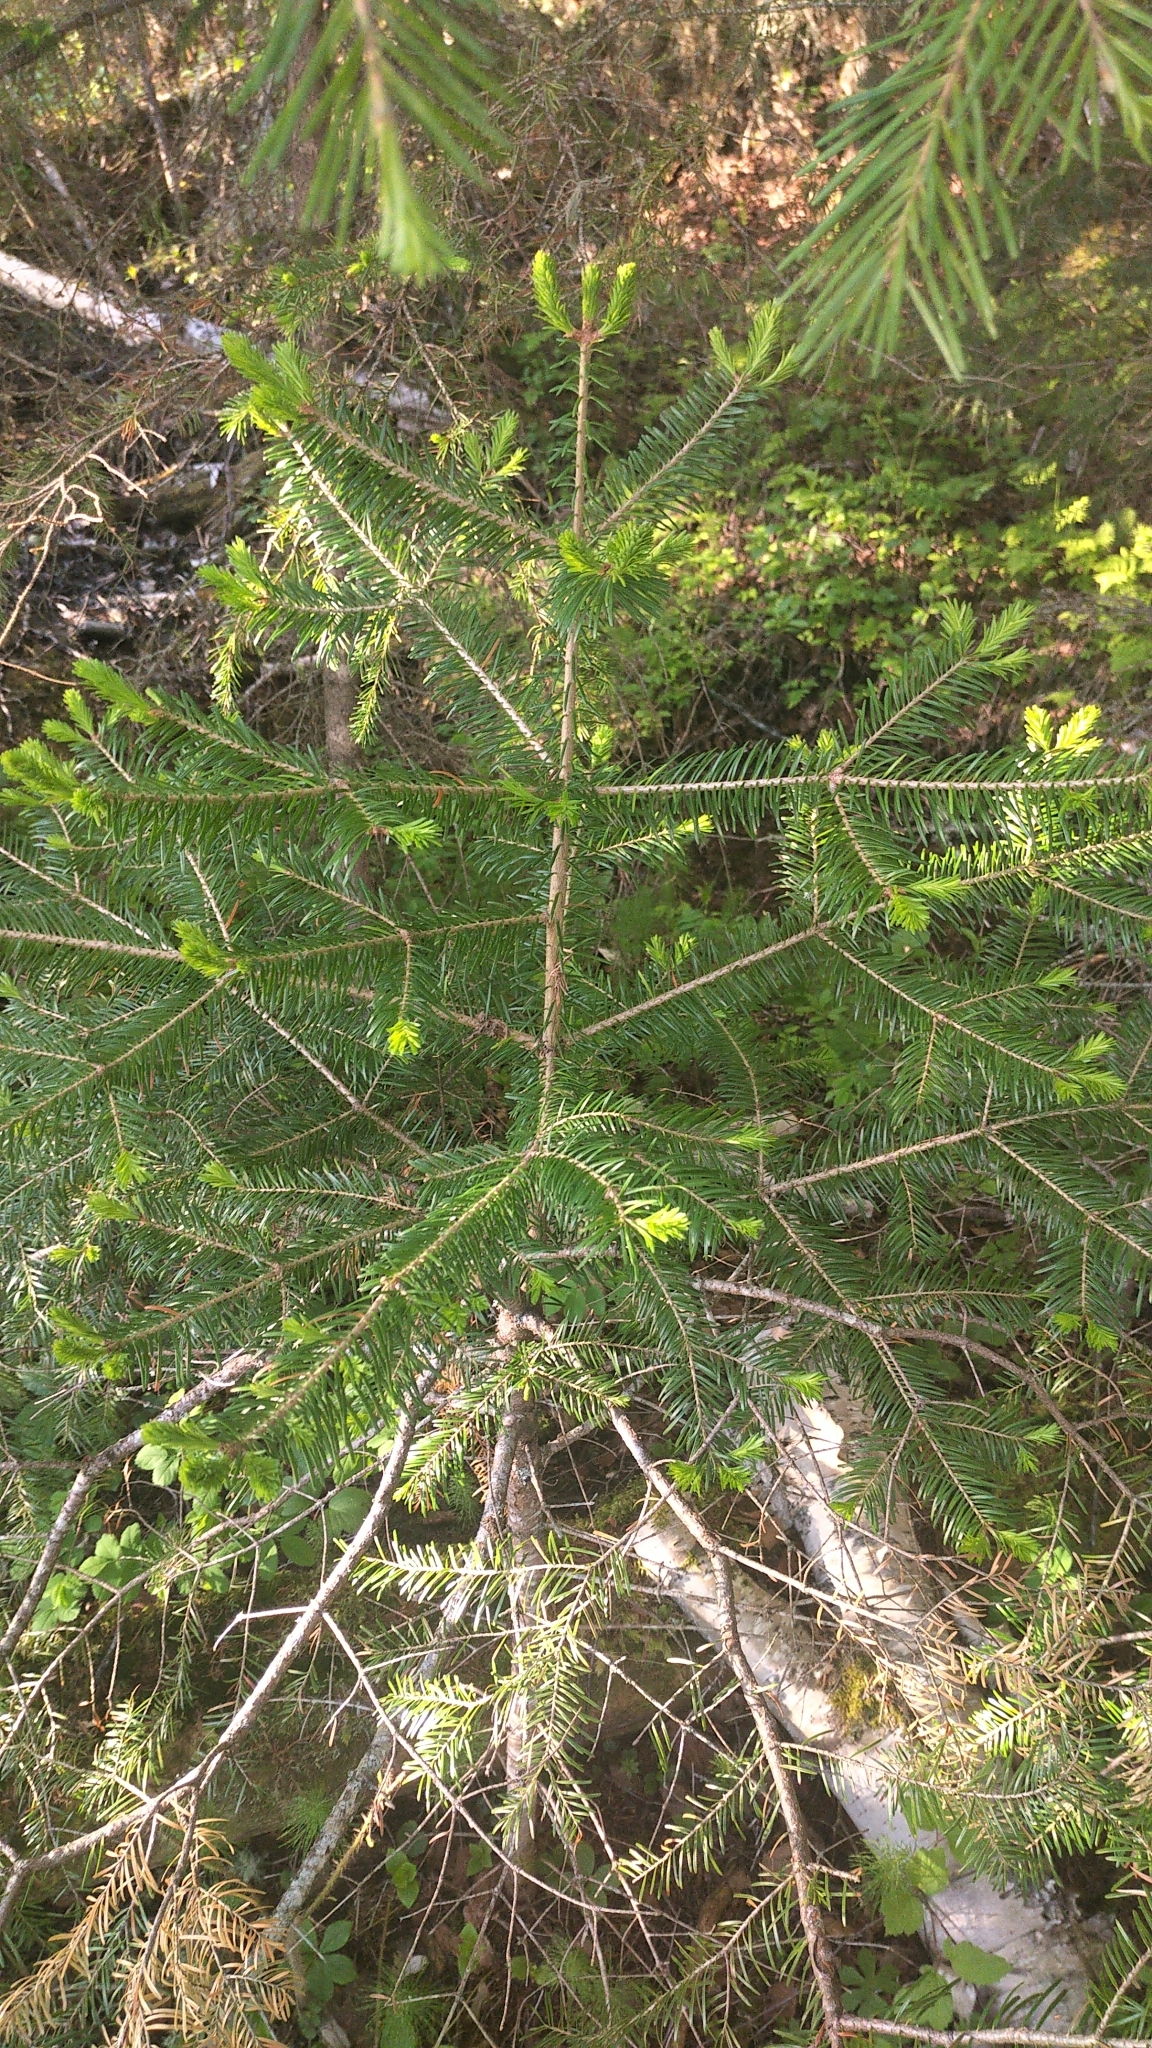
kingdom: Plantae
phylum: Tracheophyta
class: Pinopsida
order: Pinales
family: Pinaceae
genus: Abies
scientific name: Abies balsamea
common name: Balsam fir
